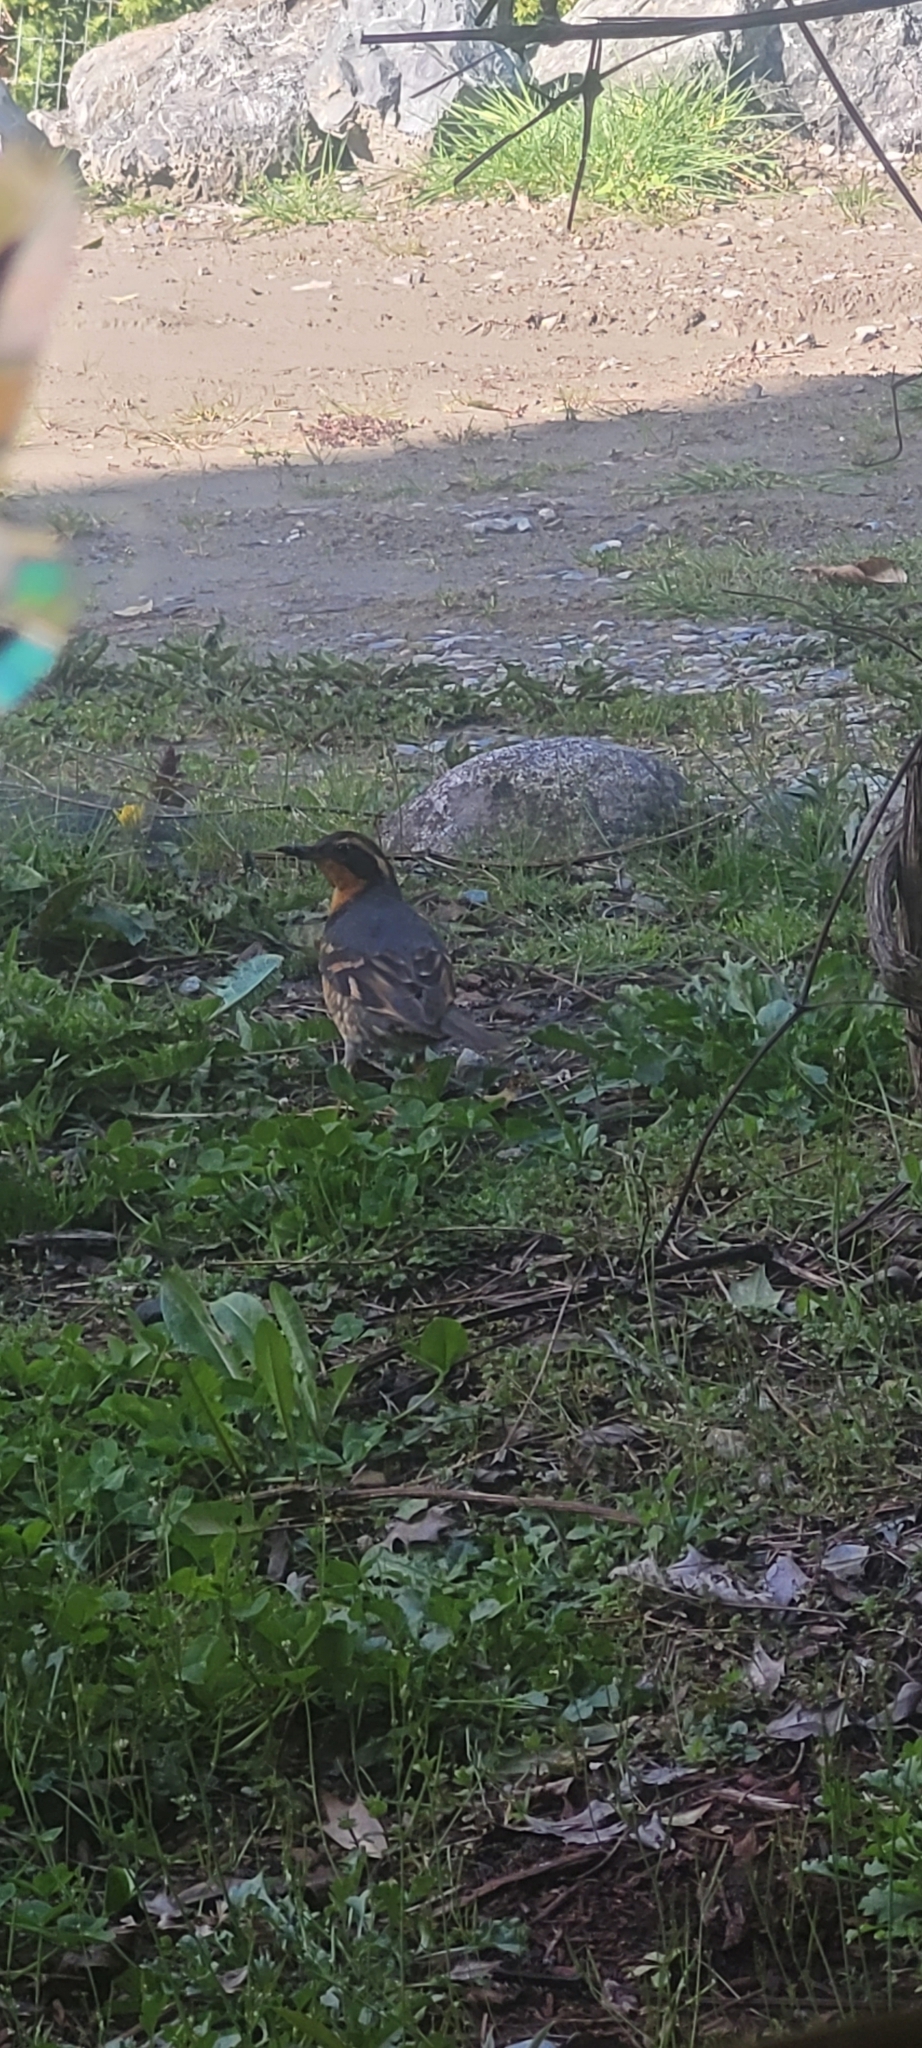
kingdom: Animalia
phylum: Chordata
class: Aves
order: Passeriformes
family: Turdidae
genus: Ixoreus
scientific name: Ixoreus naevius
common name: Varied thrush
